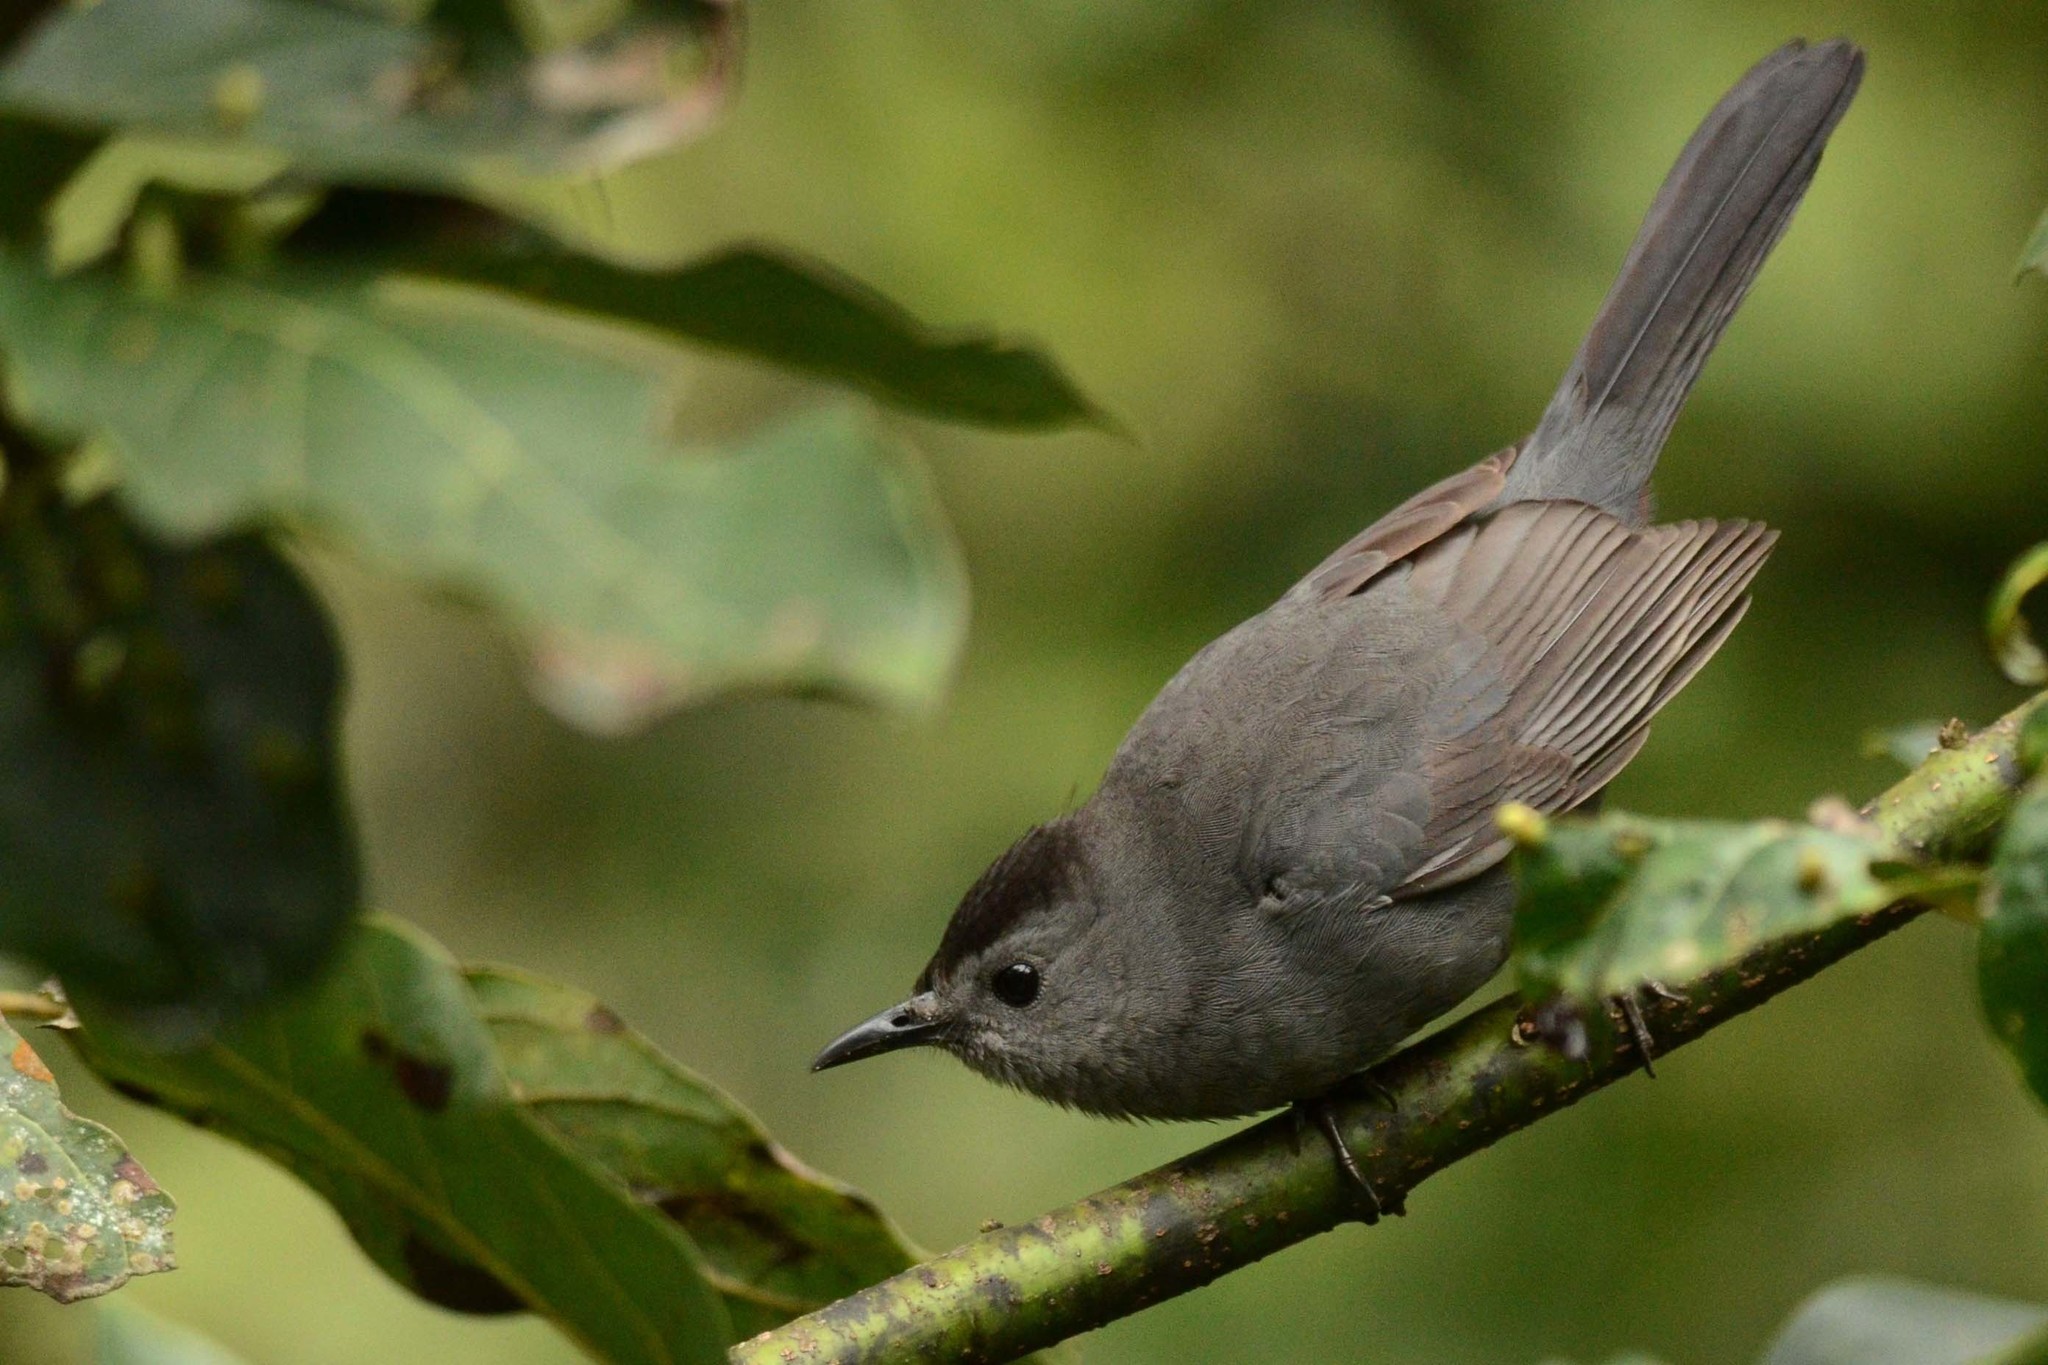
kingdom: Animalia
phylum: Chordata
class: Aves
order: Passeriformes
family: Mimidae
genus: Dumetella
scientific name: Dumetella carolinensis
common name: Gray catbird
